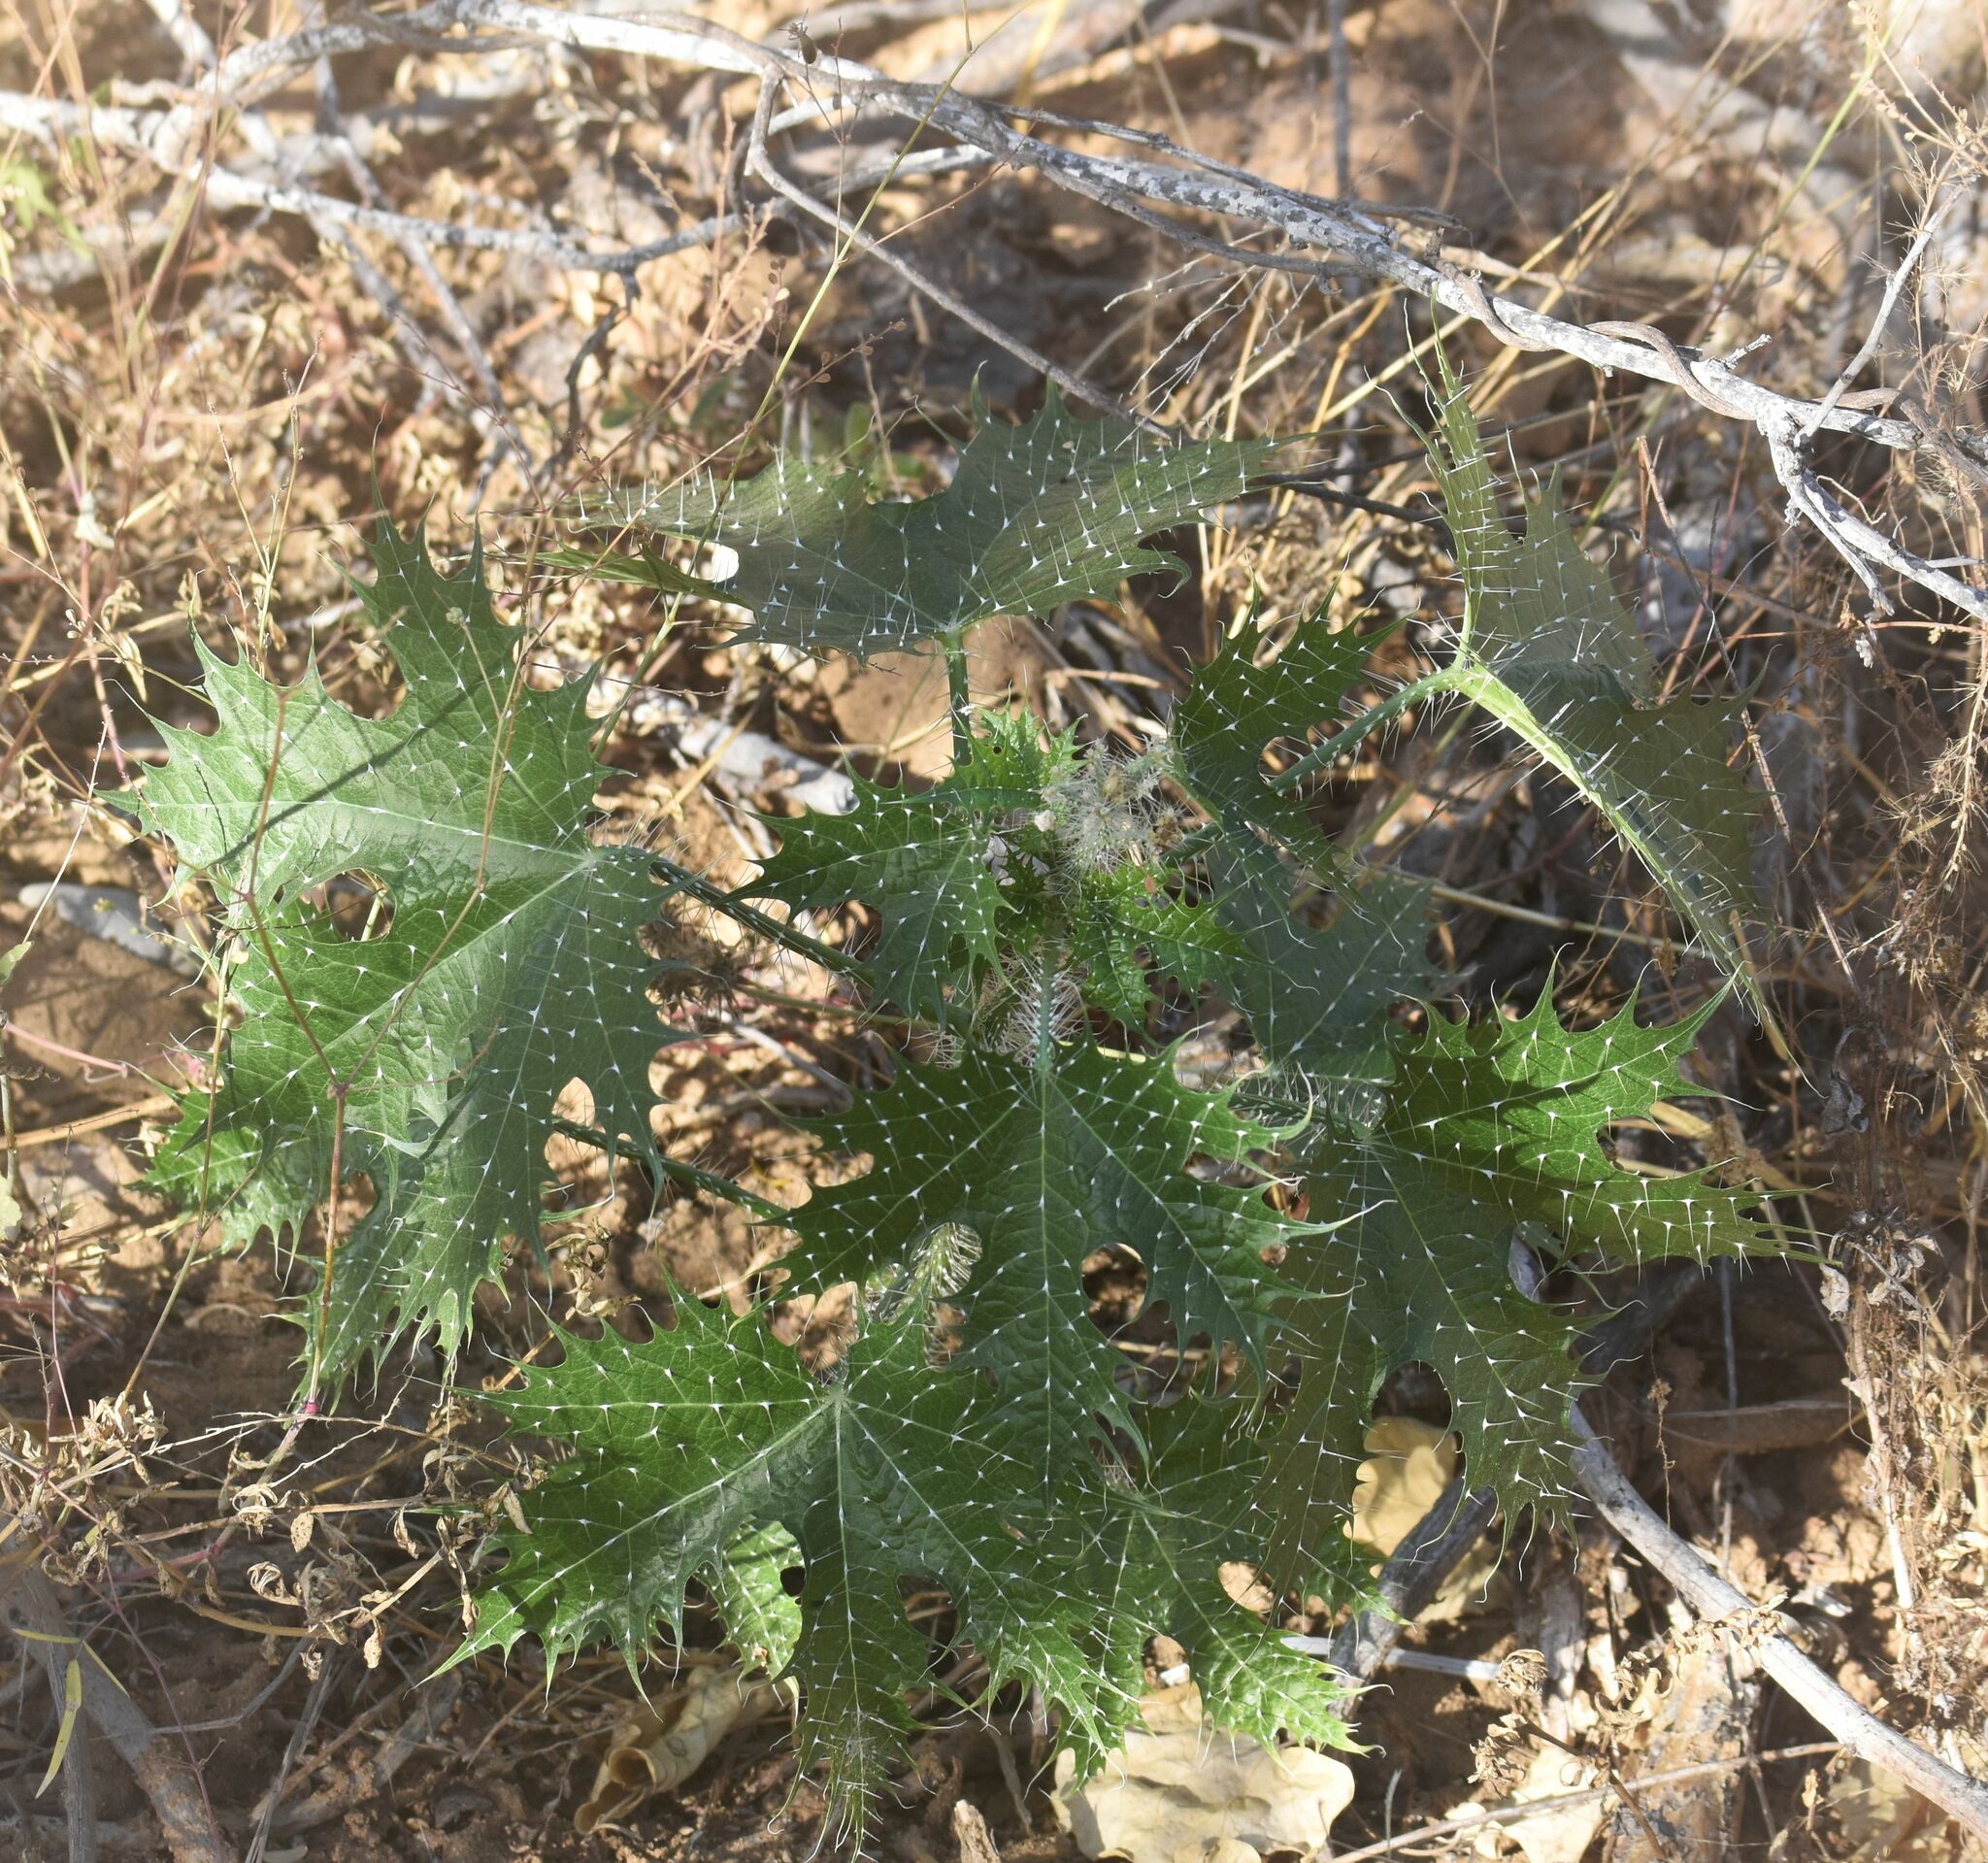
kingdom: Plantae
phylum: Tracheophyta
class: Magnoliopsida
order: Malpighiales
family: Euphorbiaceae
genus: Cnidoscolus
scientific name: Cnidoscolus maculatus
